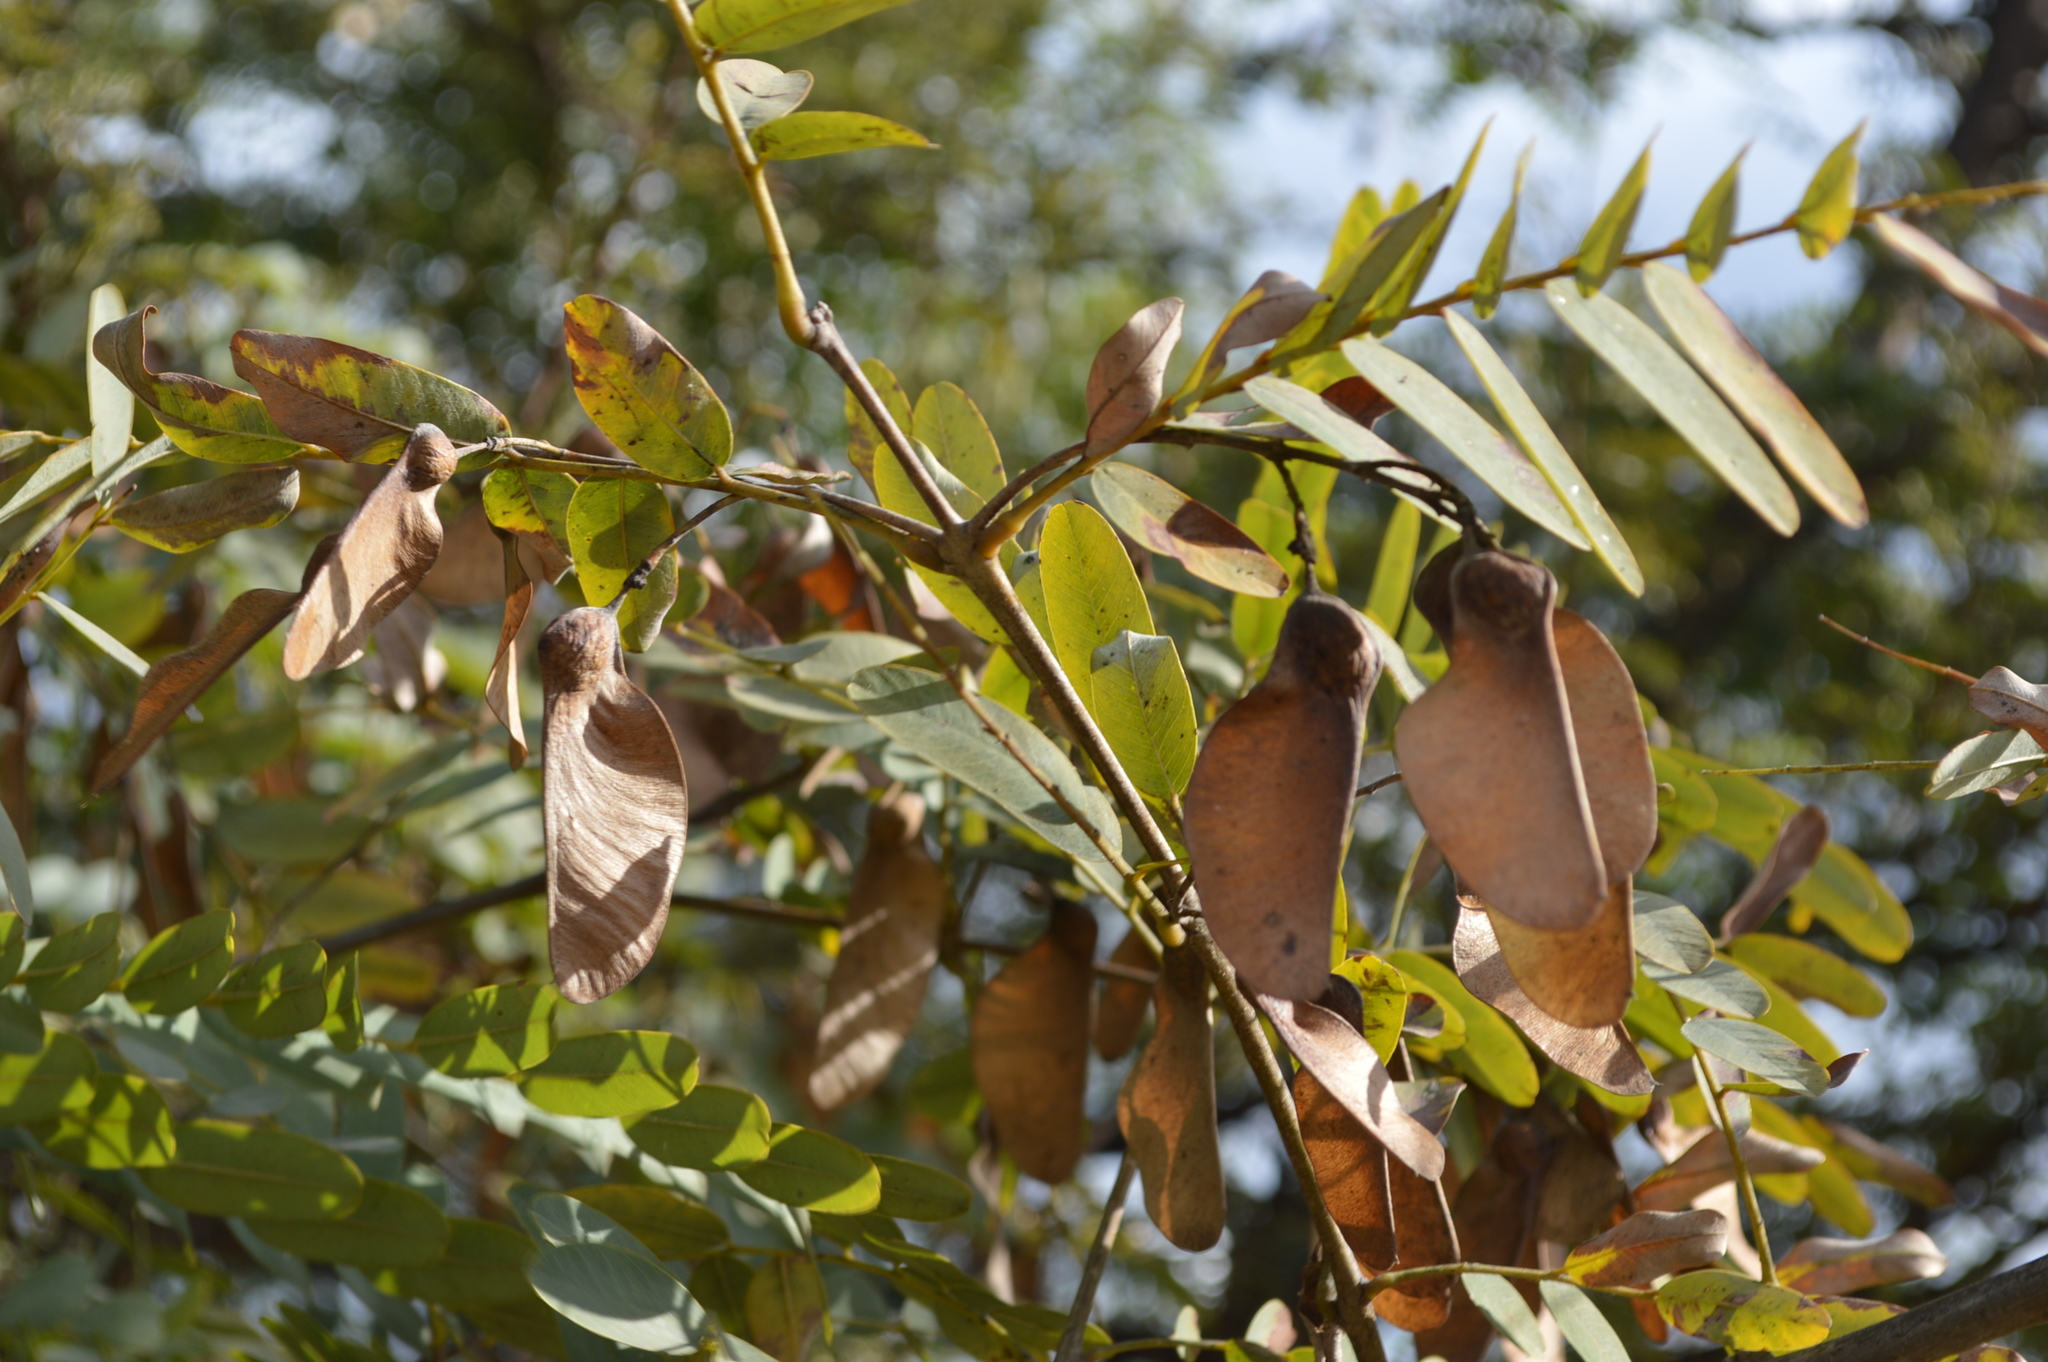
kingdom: Plantae
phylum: Tracheophyta
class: Magnoliopsida
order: Fabales
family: Fabaceae
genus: Tipuana
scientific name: Tipuana tipu
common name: Tiputree
